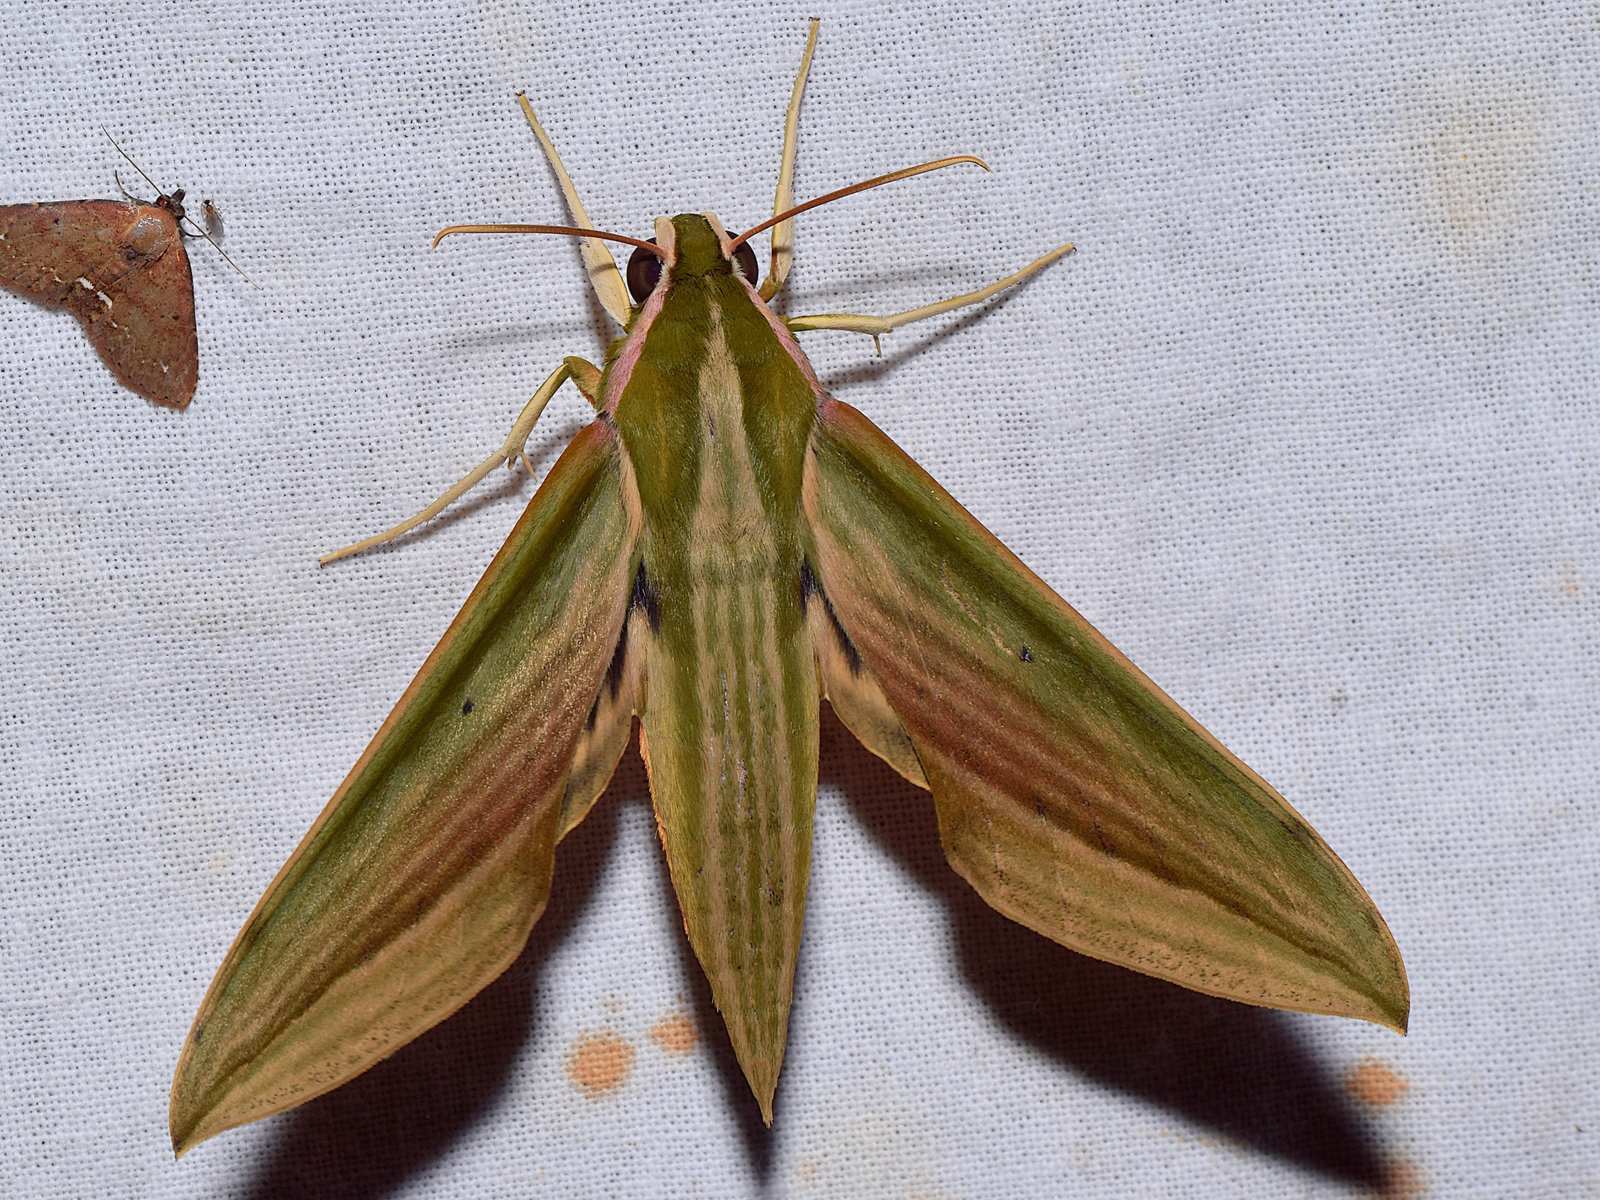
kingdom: Animalia
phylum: Arthropoda
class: Insecta
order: Lepidoptera
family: Sphingidae
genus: Cechetra
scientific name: Cechetra lineosa
